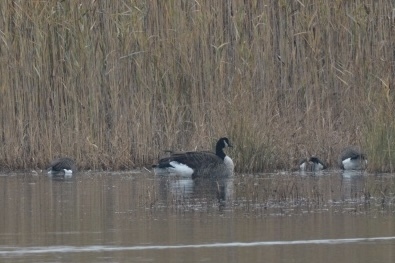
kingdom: Animalia
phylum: Chordata
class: Aves
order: Anseriformes
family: Anatidae
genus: Branta
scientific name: Branta canadensis
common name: Canada goose
